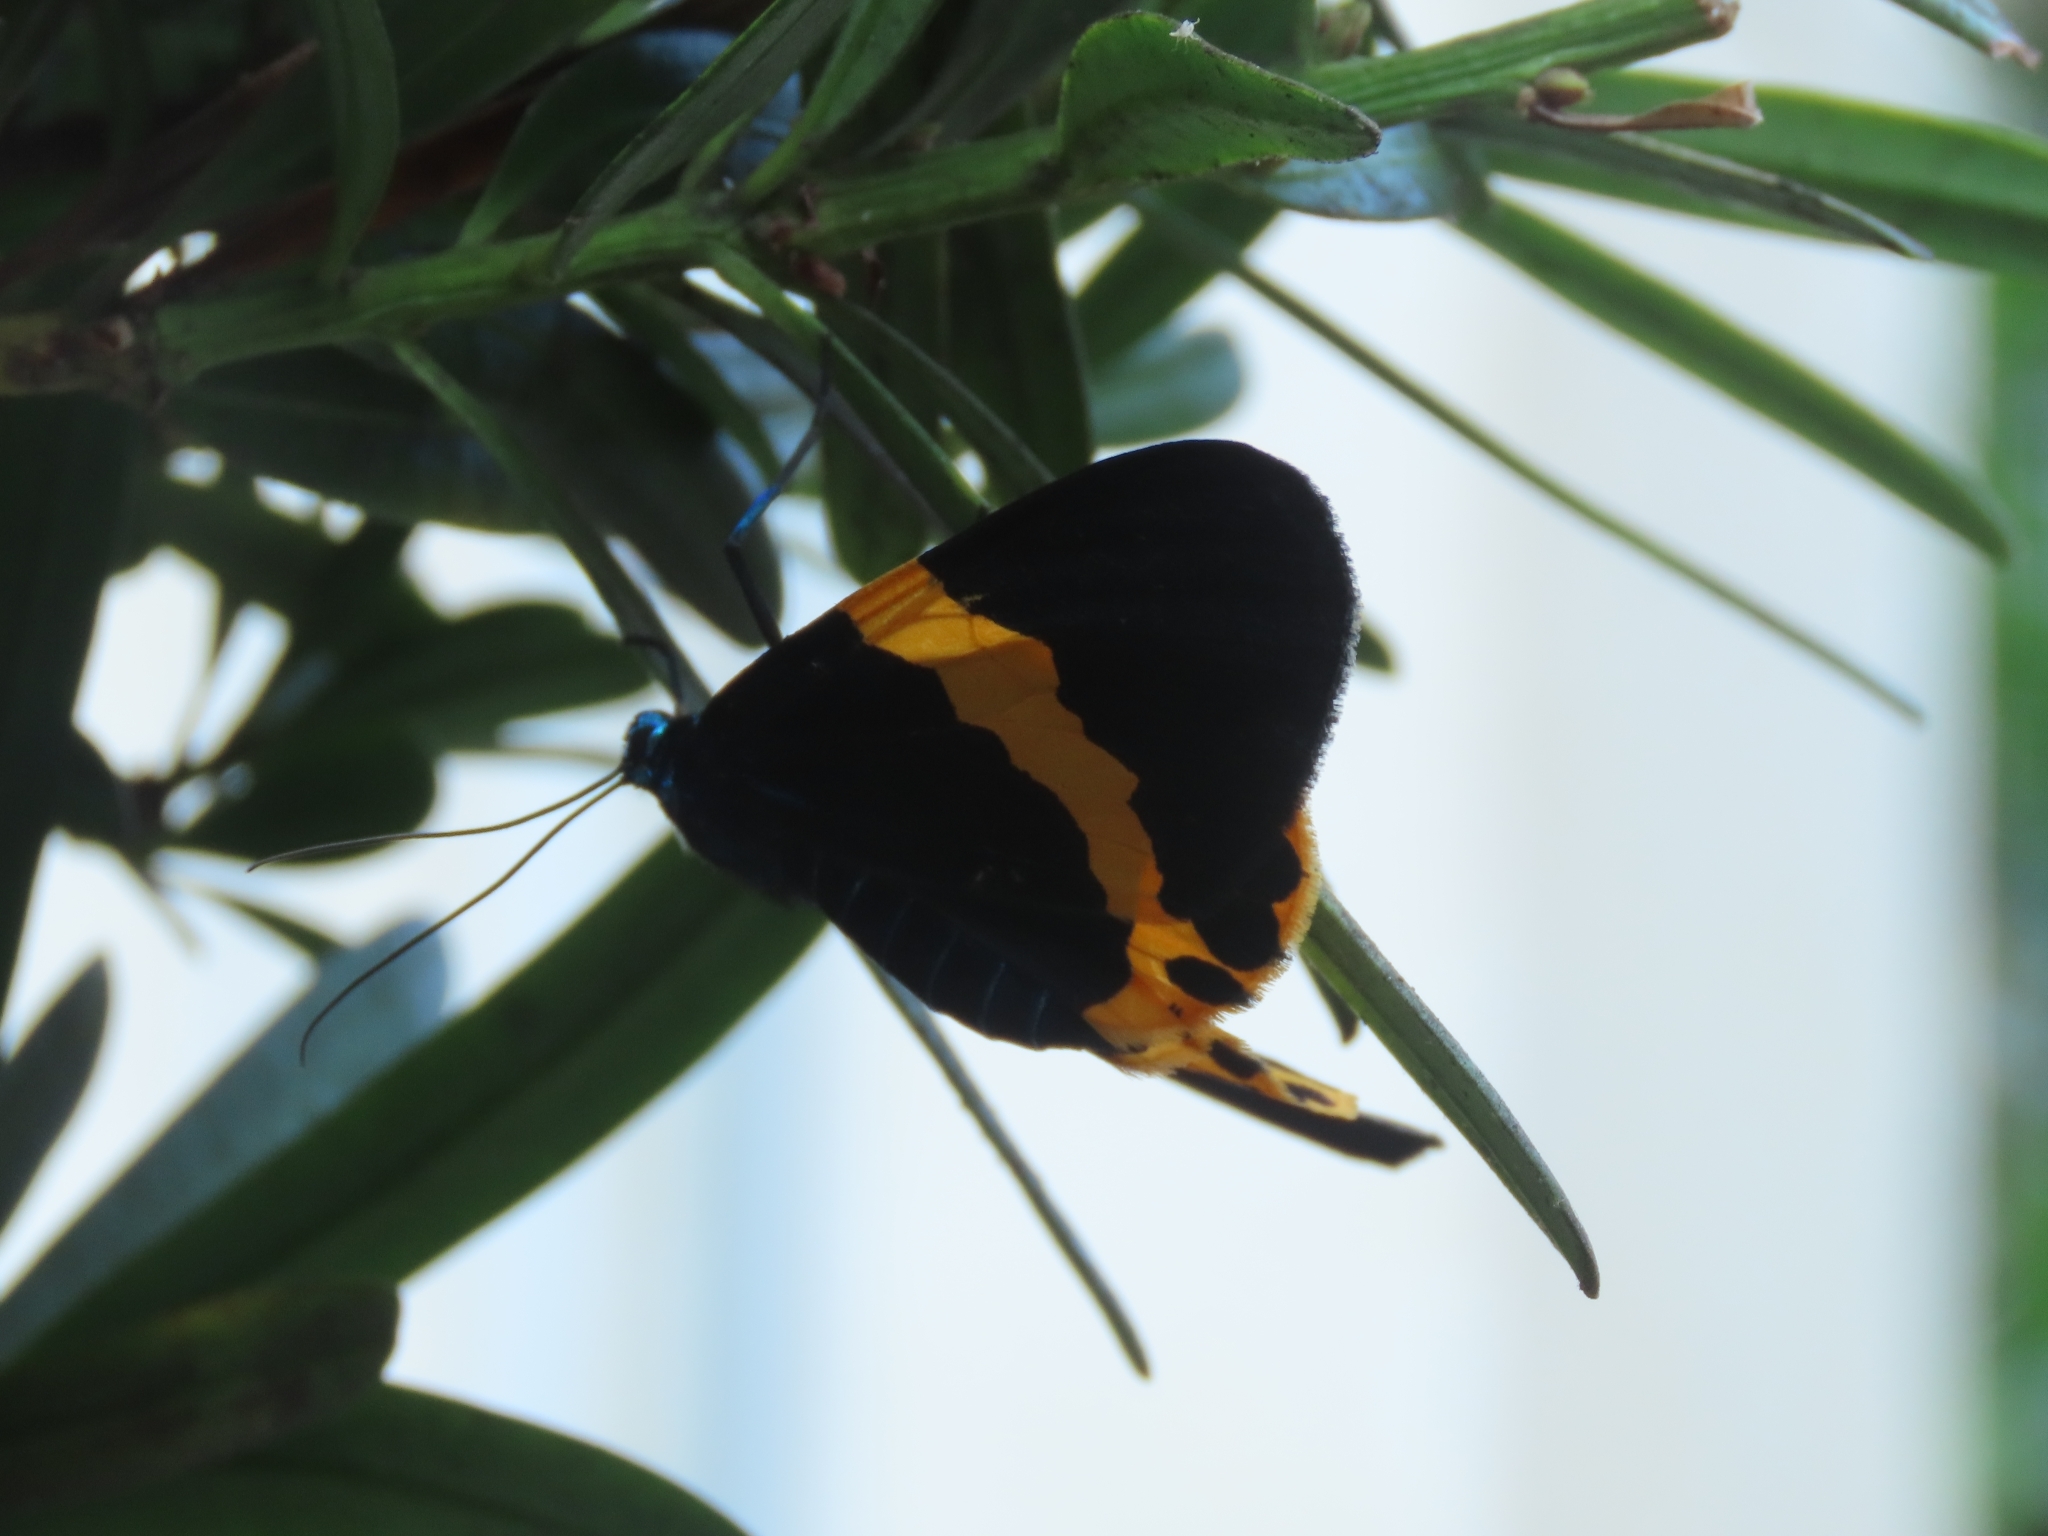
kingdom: Animalia
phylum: Arthropoda
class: Insecta
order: Lepidoptera
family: Geometridae
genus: Milionia
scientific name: Milionia basalis
